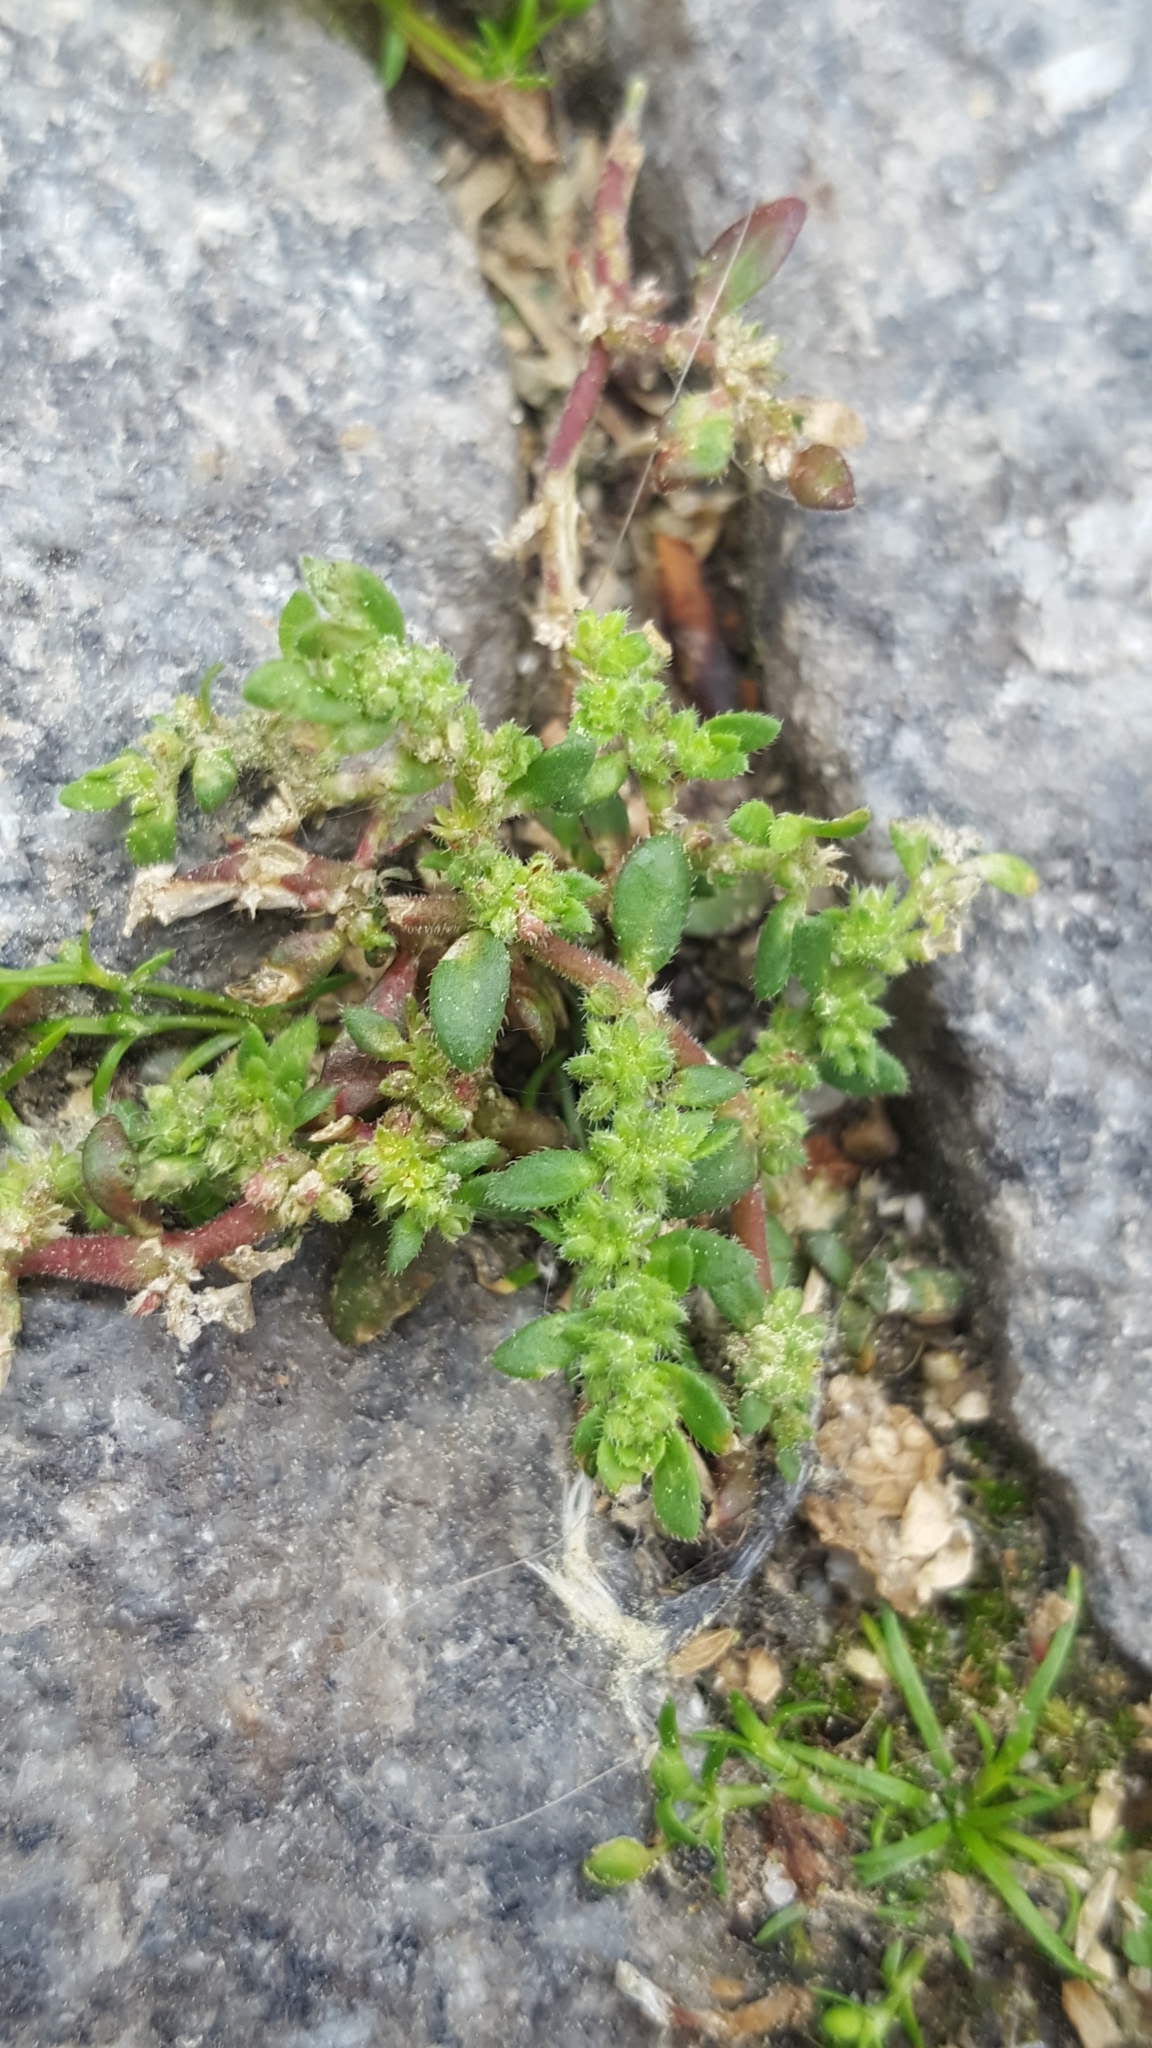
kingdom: Plantae
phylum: Tracheophyta
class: Magnoliopsida
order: Caryophyllales
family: Caryophyllaceae
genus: Herniaria
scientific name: Herniaria hirsuta
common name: Hairy rupturewort
